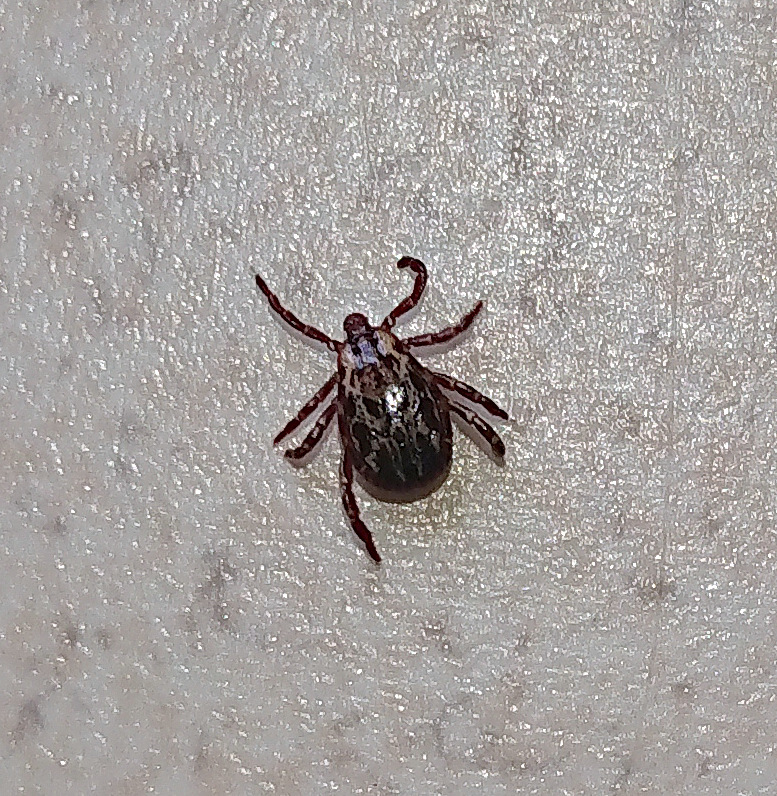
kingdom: Animalia
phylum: Arthropoda
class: Arachnida
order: Ixodida
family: Ixodidae
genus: Dermacentor
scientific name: Dermacentor variabilis
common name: American dog tick
